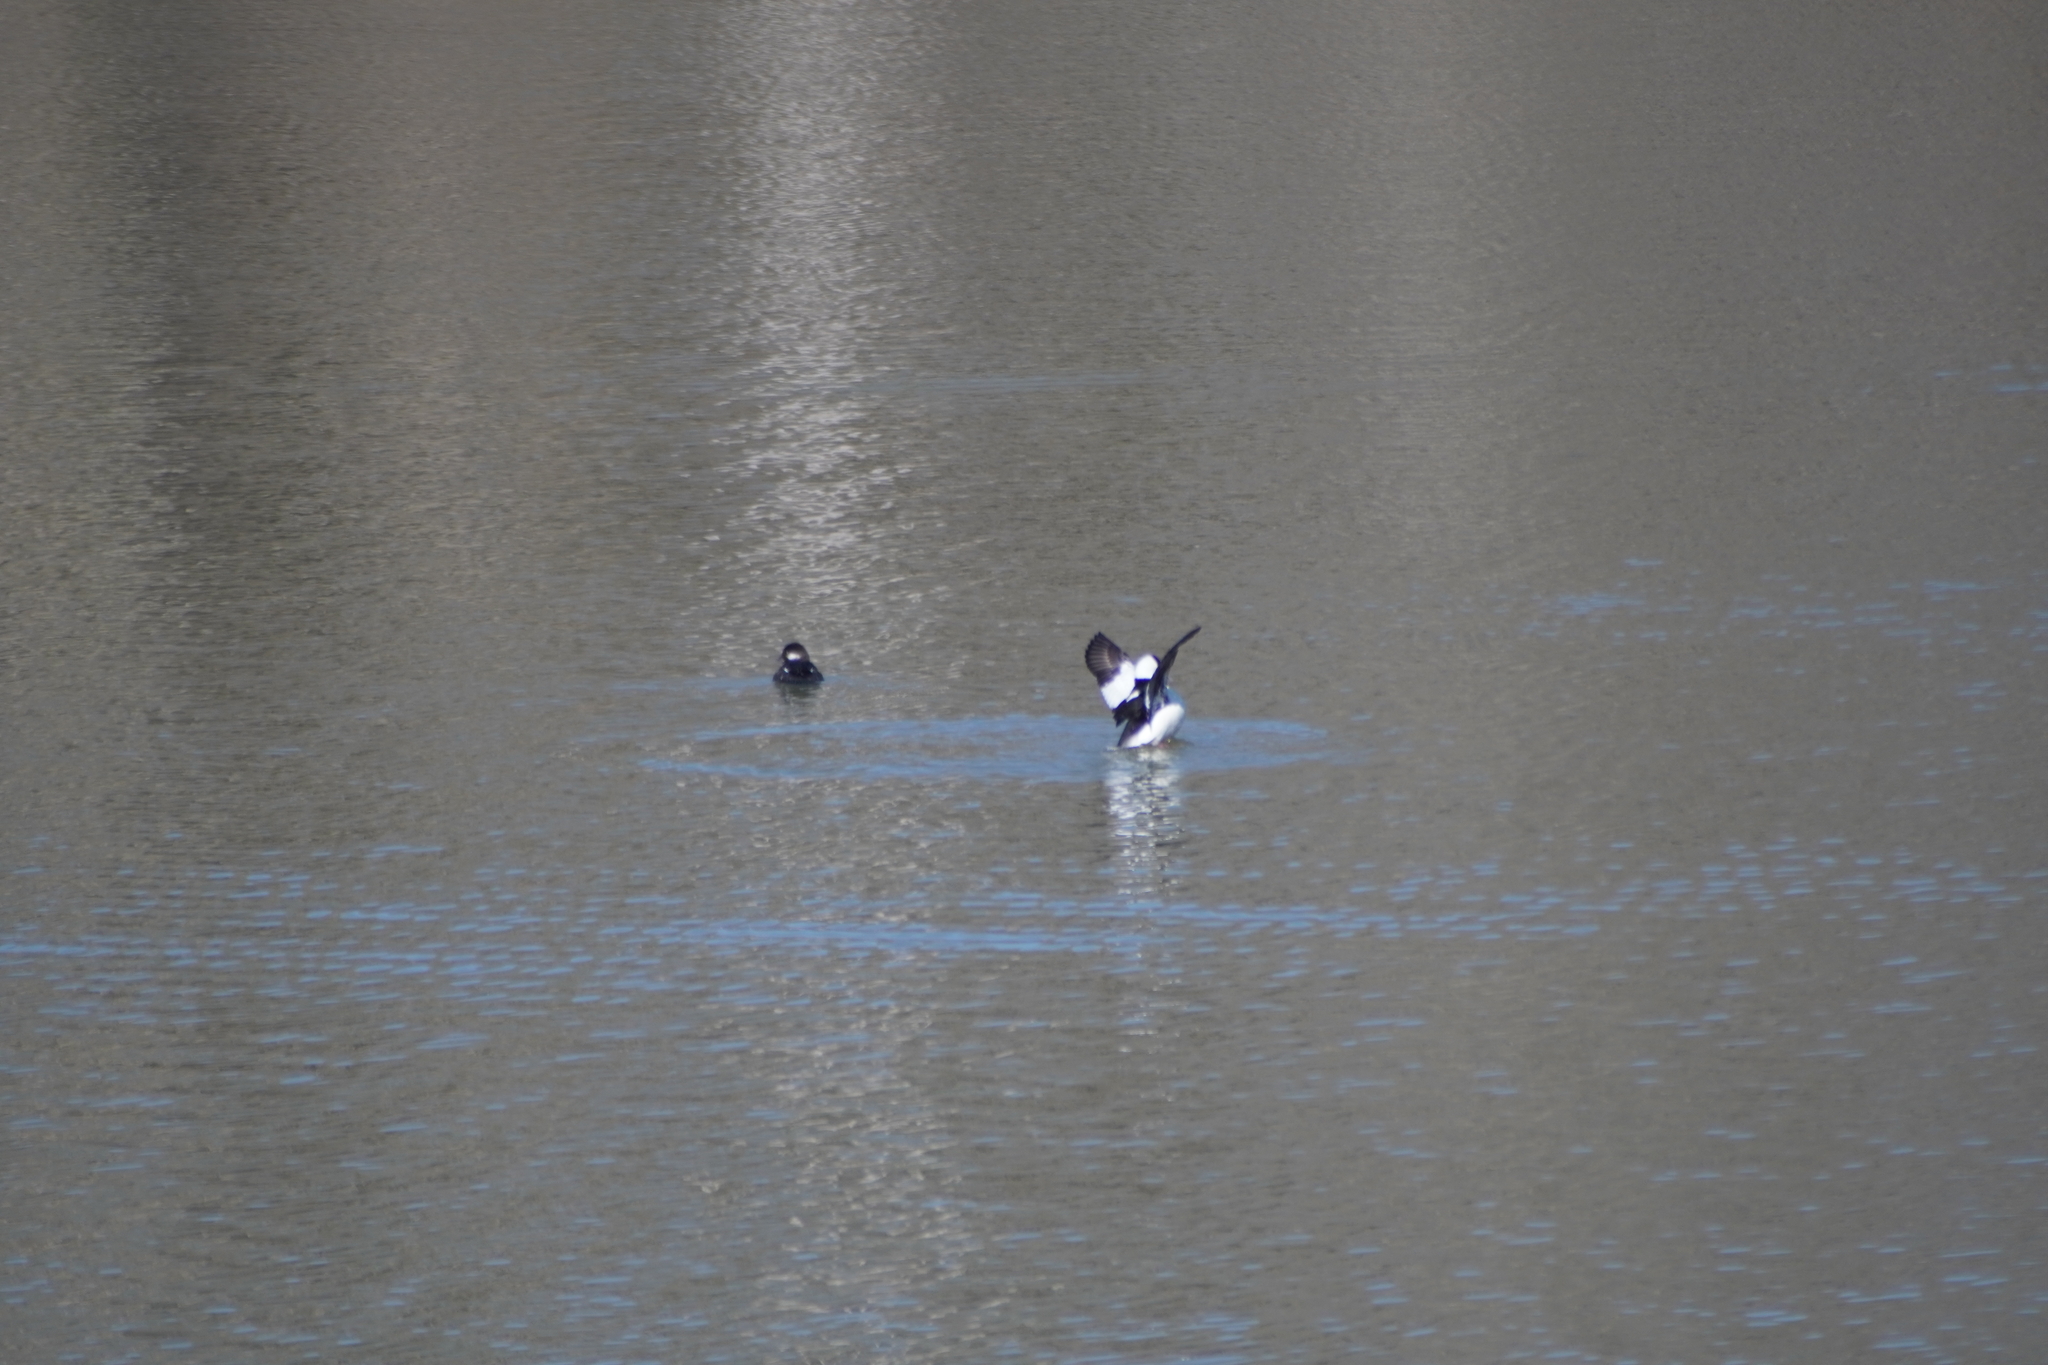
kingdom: Animalia
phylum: Chordata
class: Aves
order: Anseriformes
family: Anatidae
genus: Bucephala
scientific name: Bucephala albeola
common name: Bufflehead
